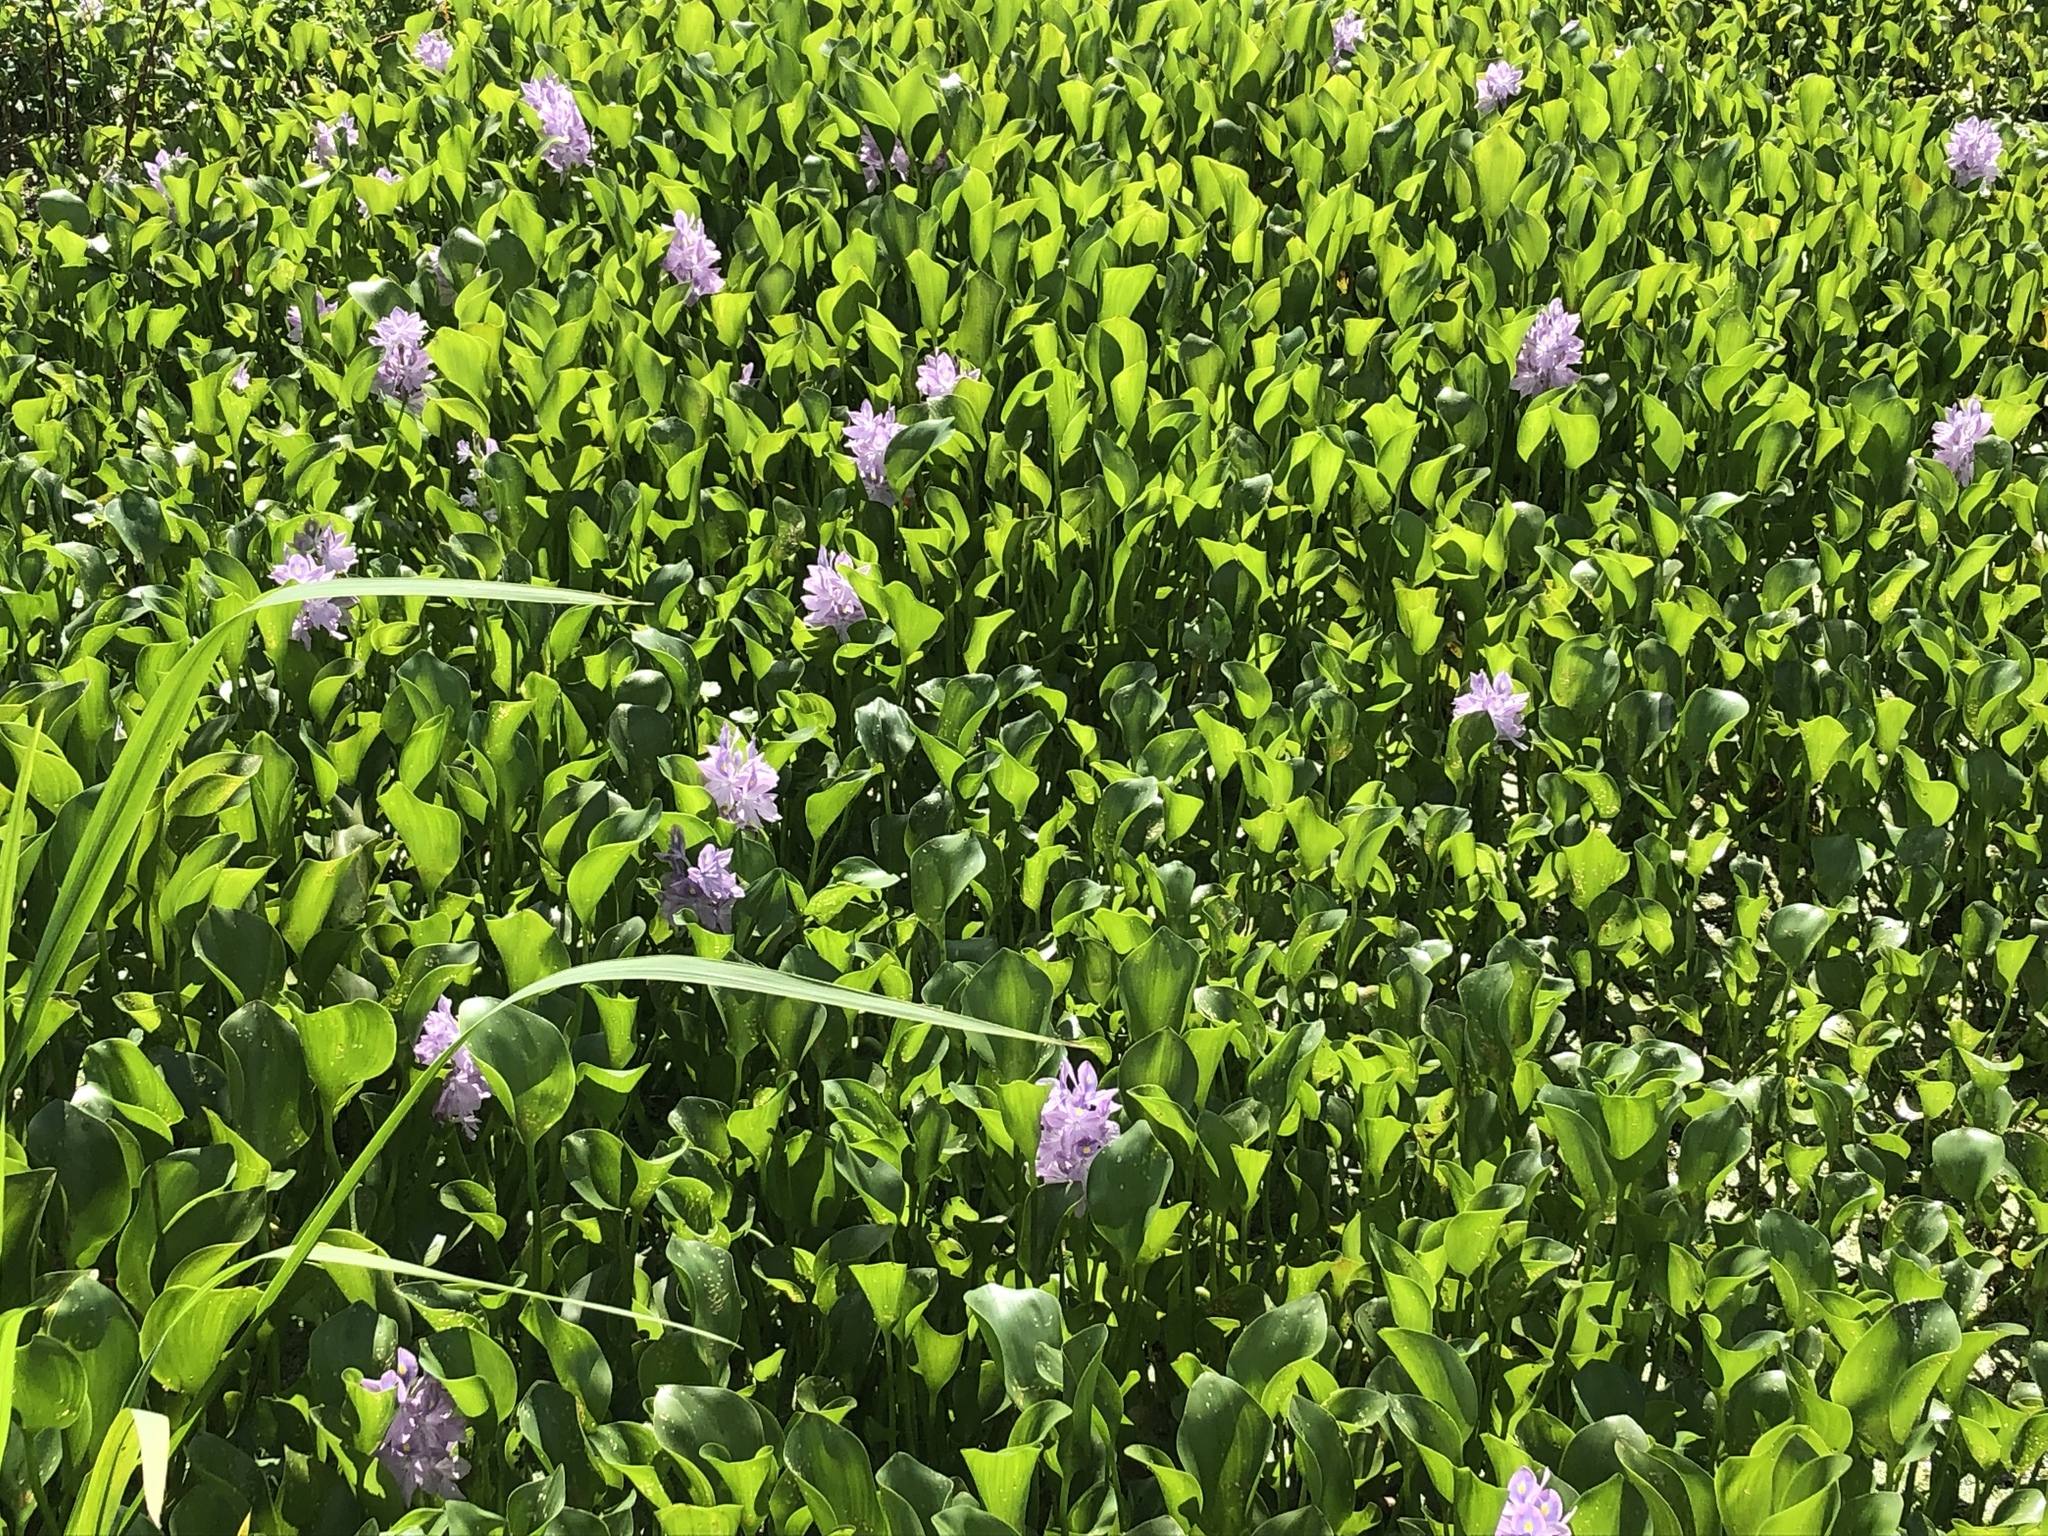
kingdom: Plantae
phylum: Tracheophyta
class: Liliopsida
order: Commelinales
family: Pontederiaceae
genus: Pontederia
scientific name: Pontederia crassipes
